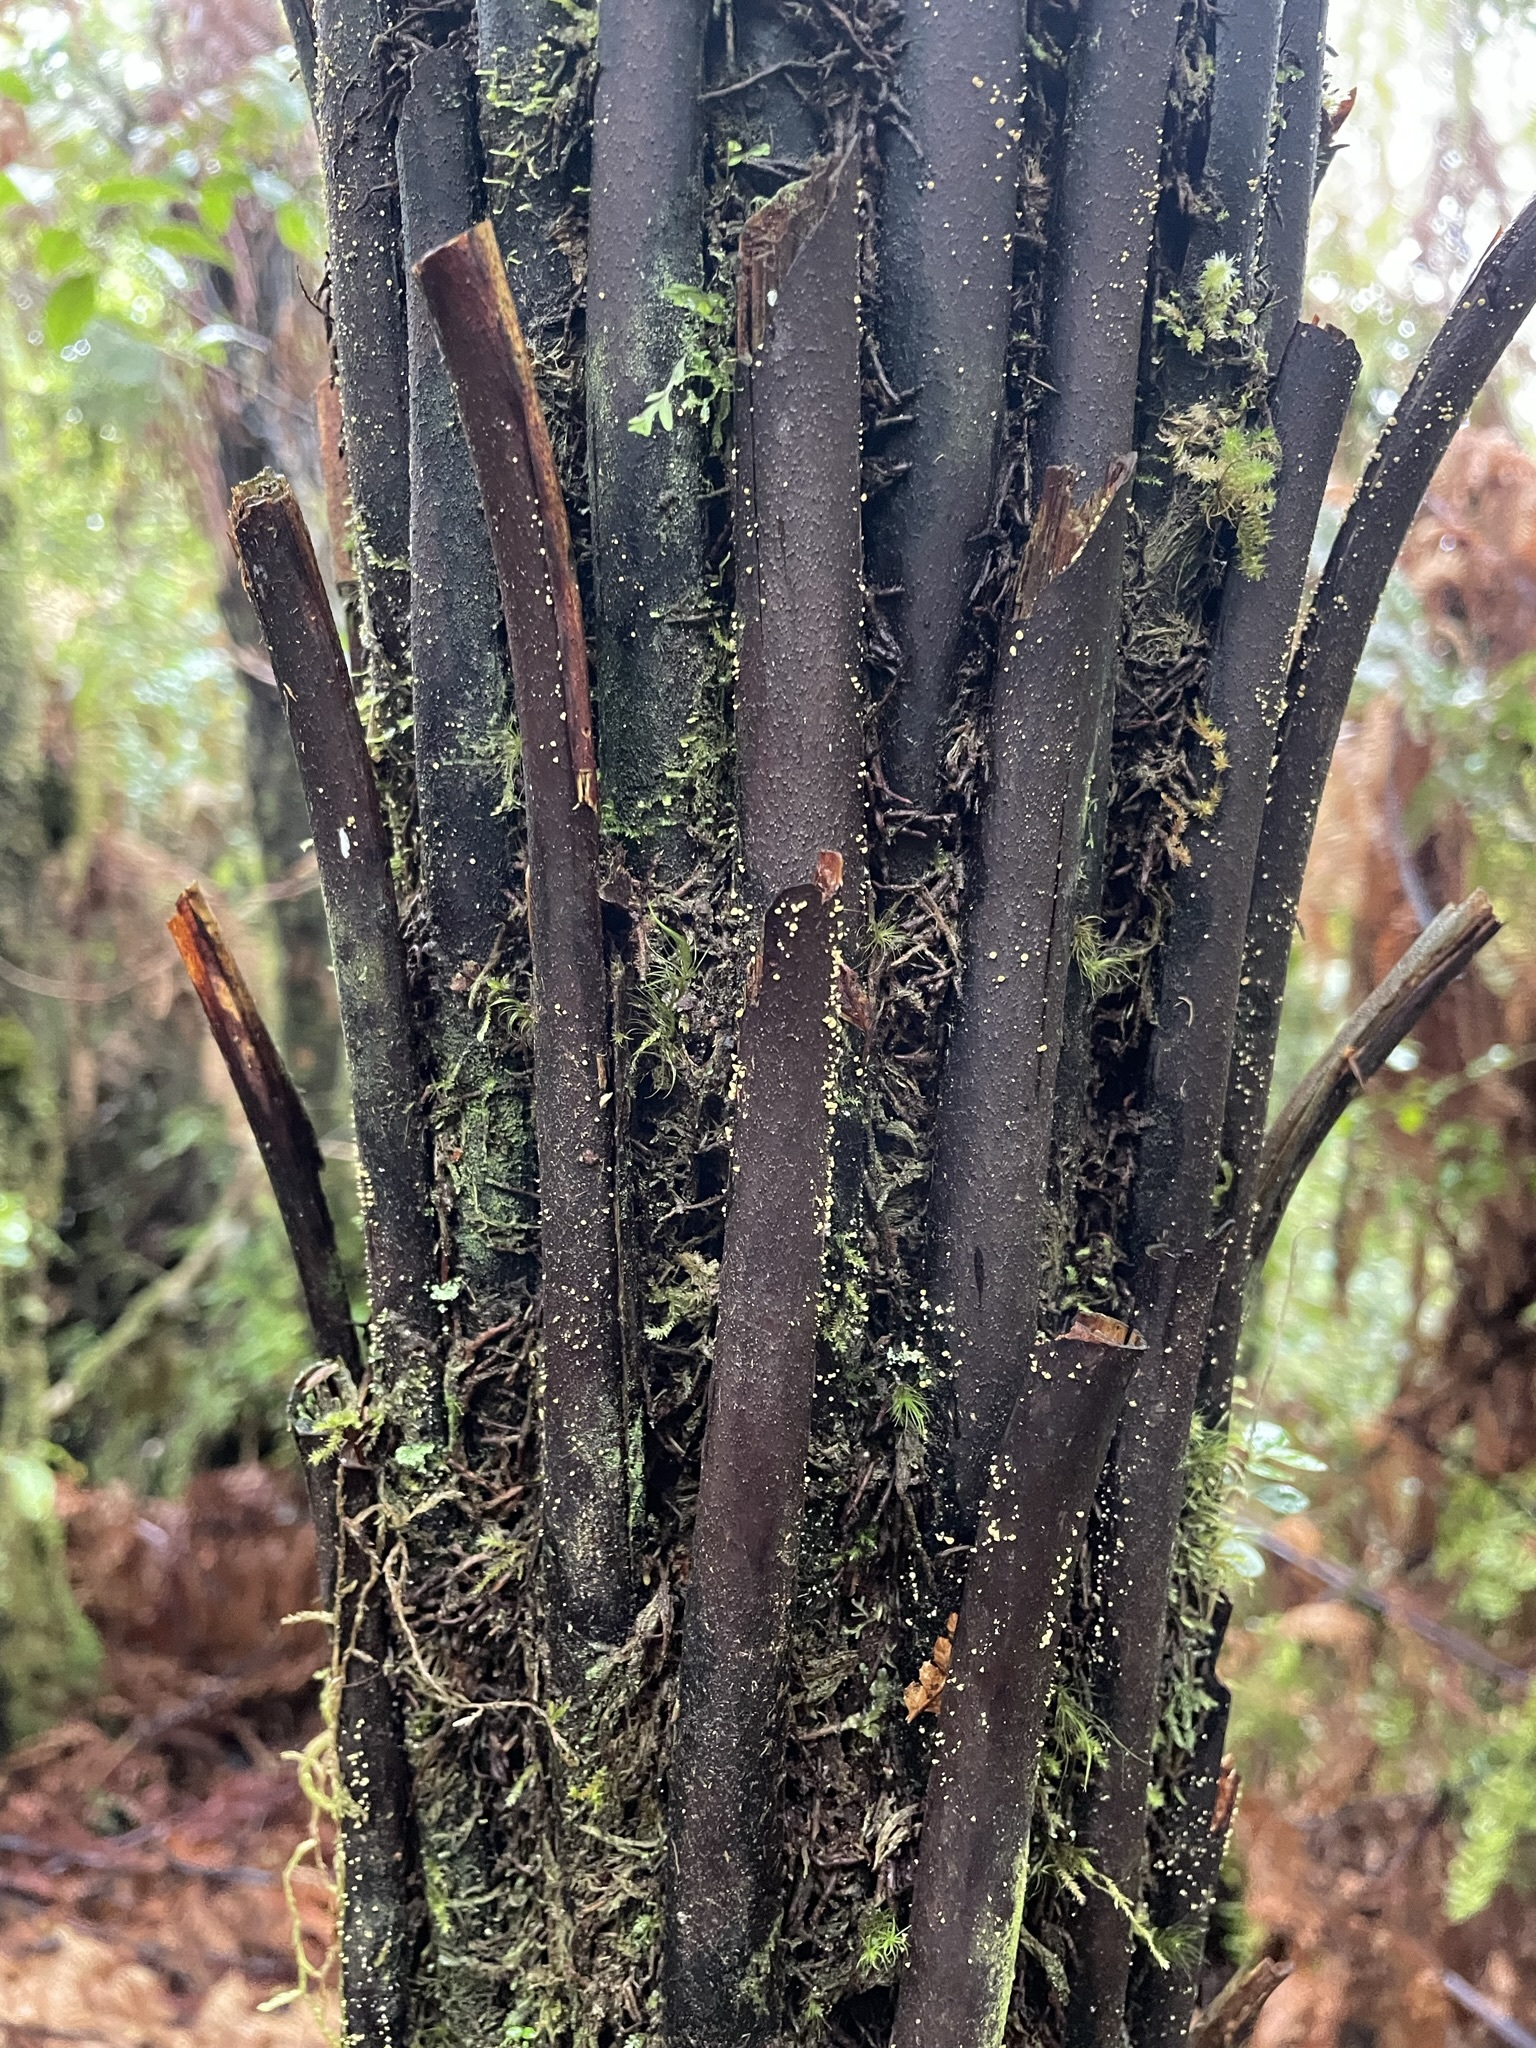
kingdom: Plantae
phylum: Tracheophyta
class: Polypodiopsida
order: Cyatheales
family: Dicksoniaceae
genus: Dicksonia
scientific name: Dicksonia squarrosa
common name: Hard treefern
